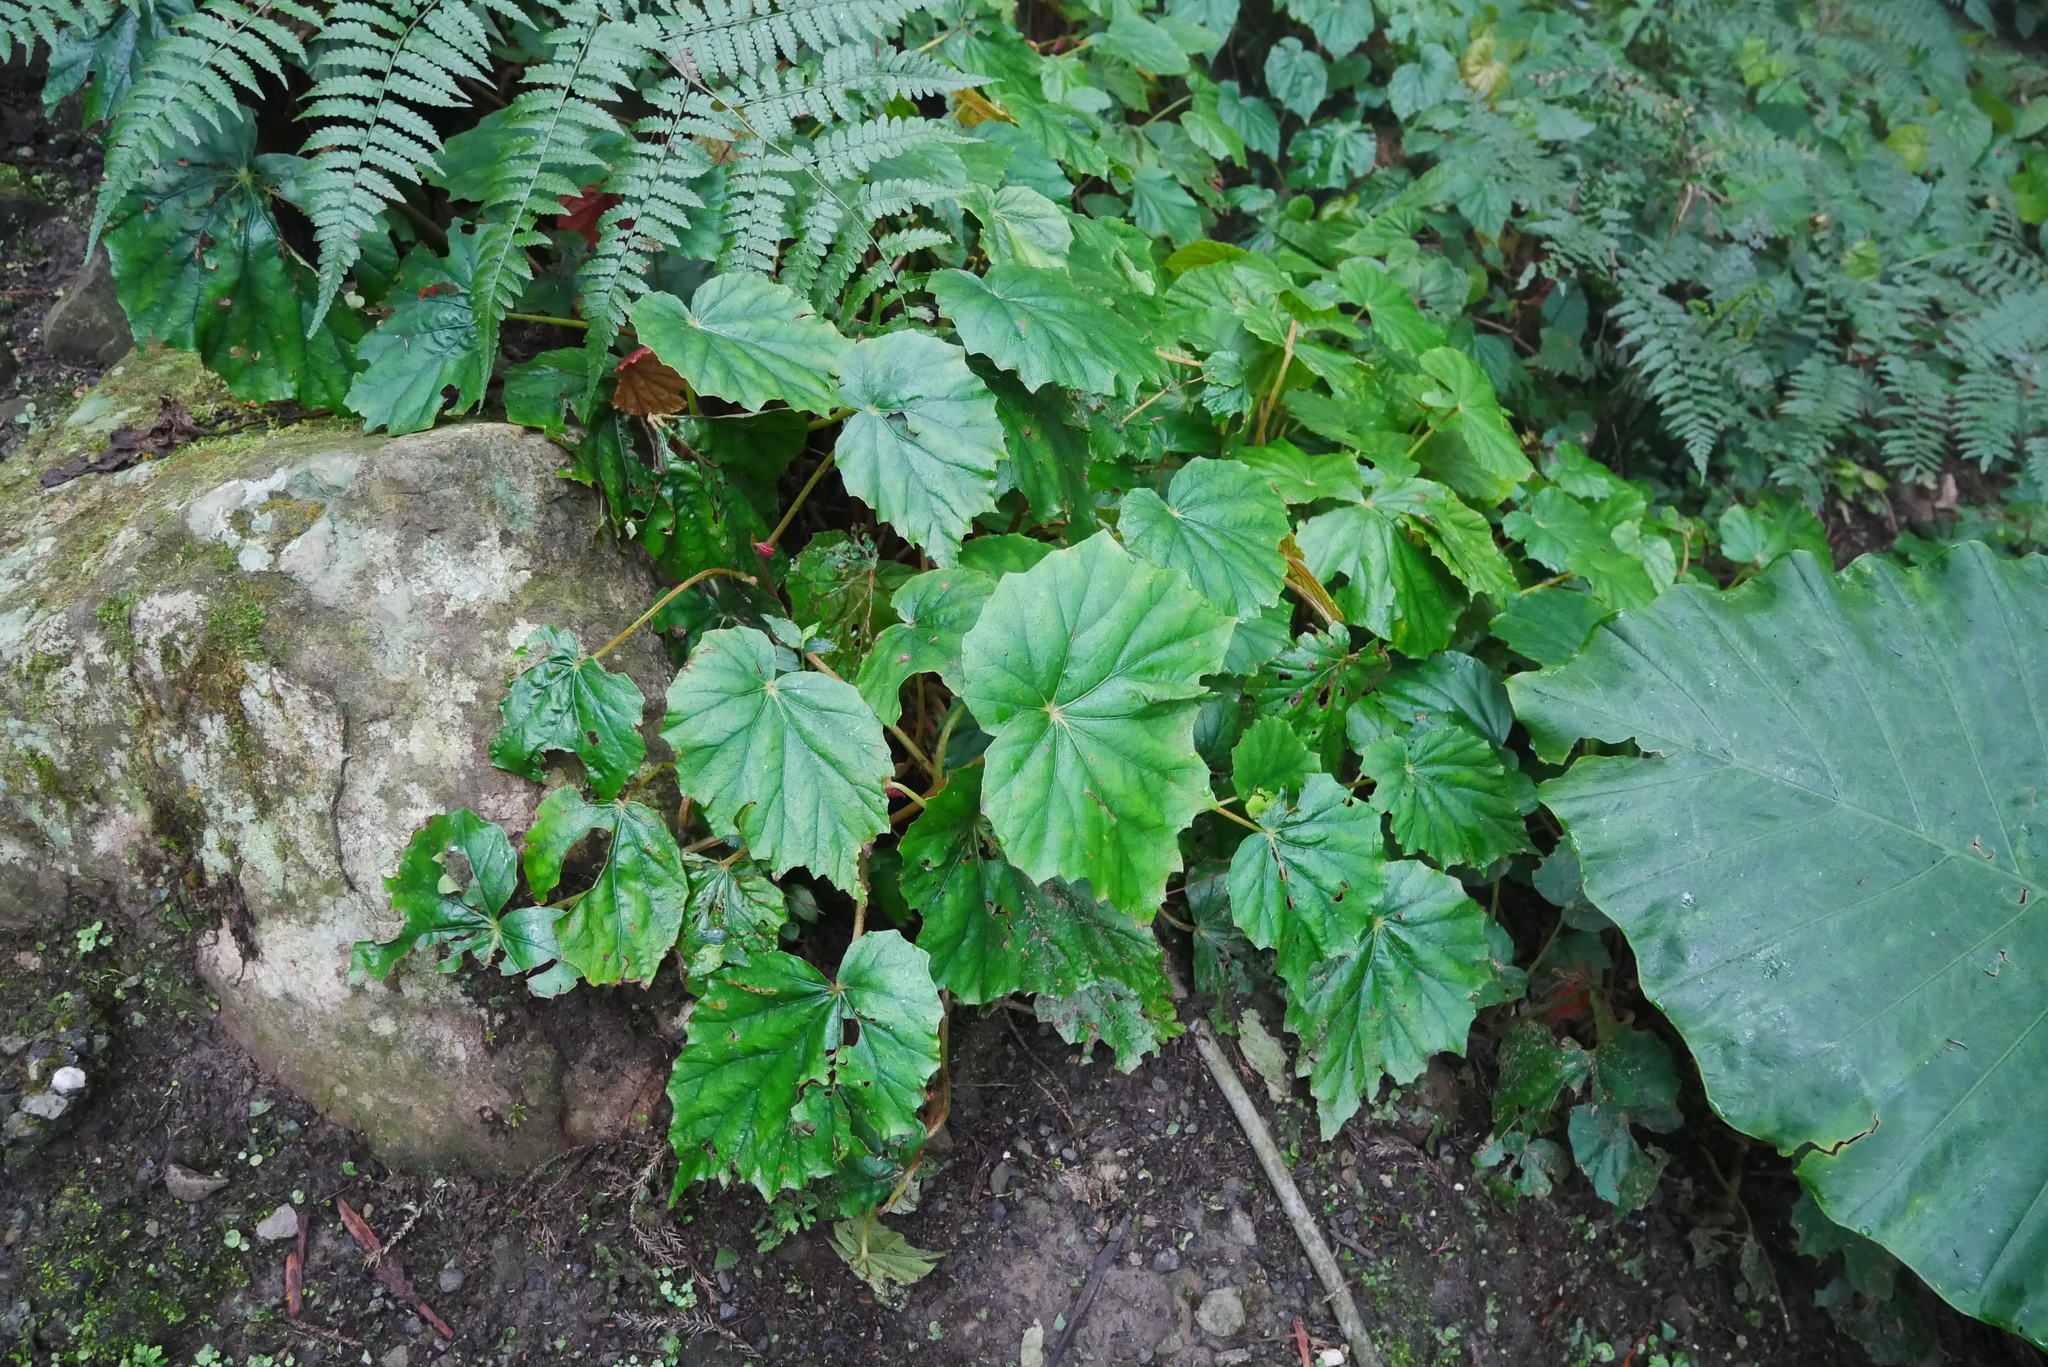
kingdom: Plantae
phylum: Tracheophyta
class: Magnoliopsida
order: Cucurbitales
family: Begoniaceae
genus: Begonia
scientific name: Begonia chitoensis
